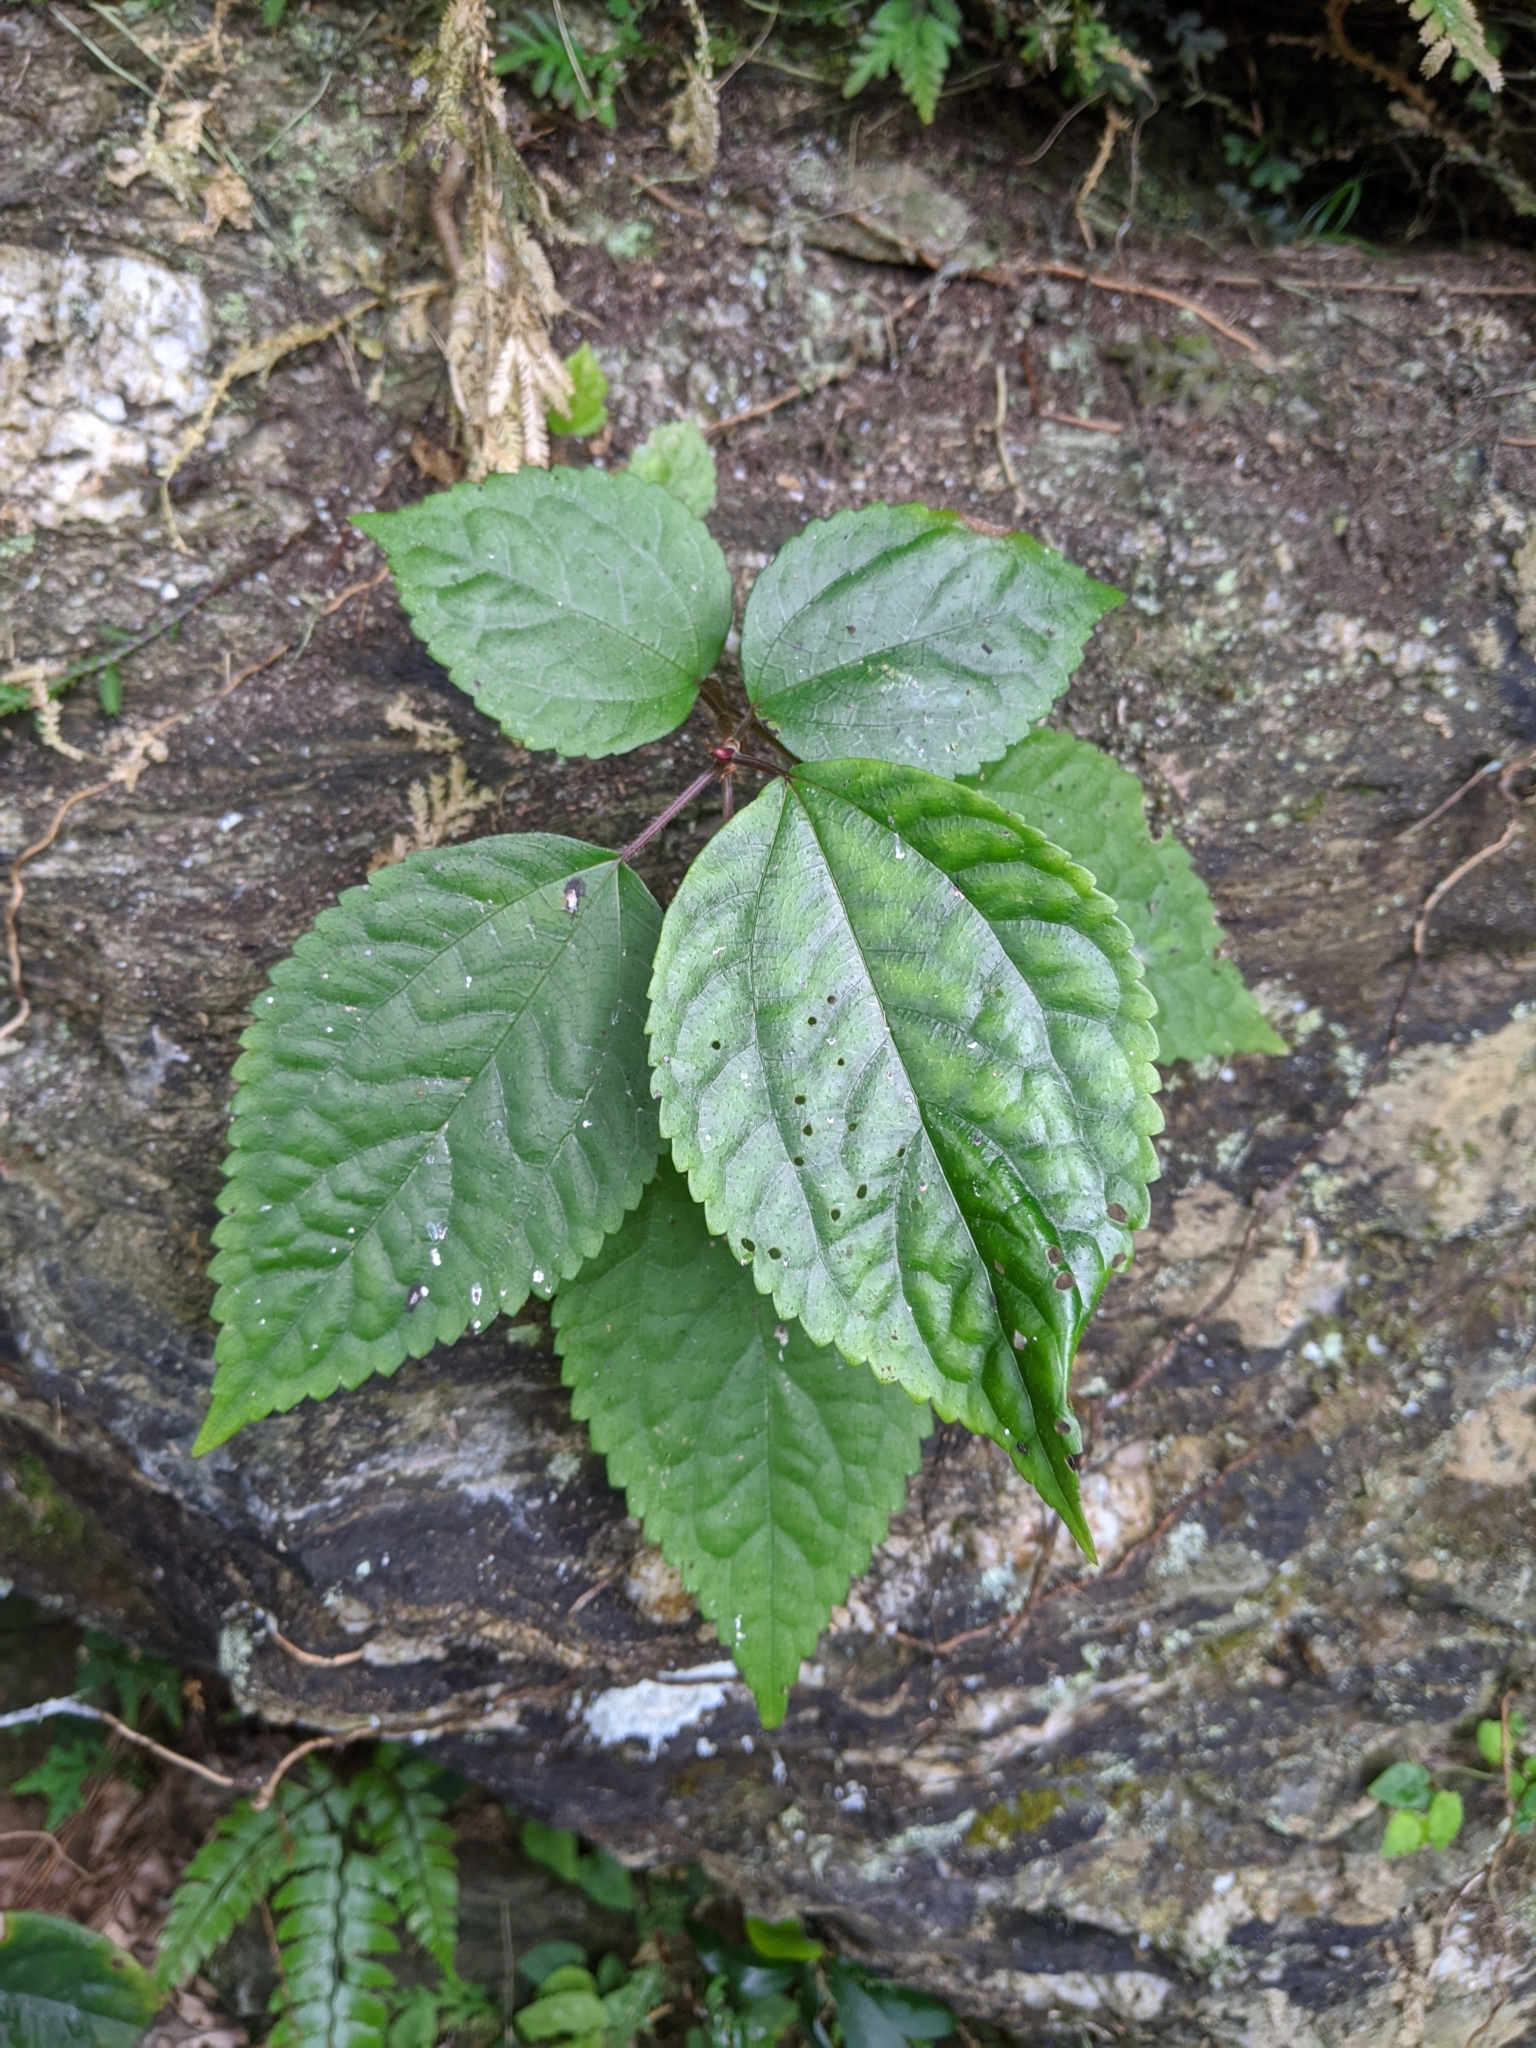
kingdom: Plantae
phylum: Tracheophyta
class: Magnoliopsida
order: Rosales
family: Urticaceae
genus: Oreocnide
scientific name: Oreocnide pedunculata
